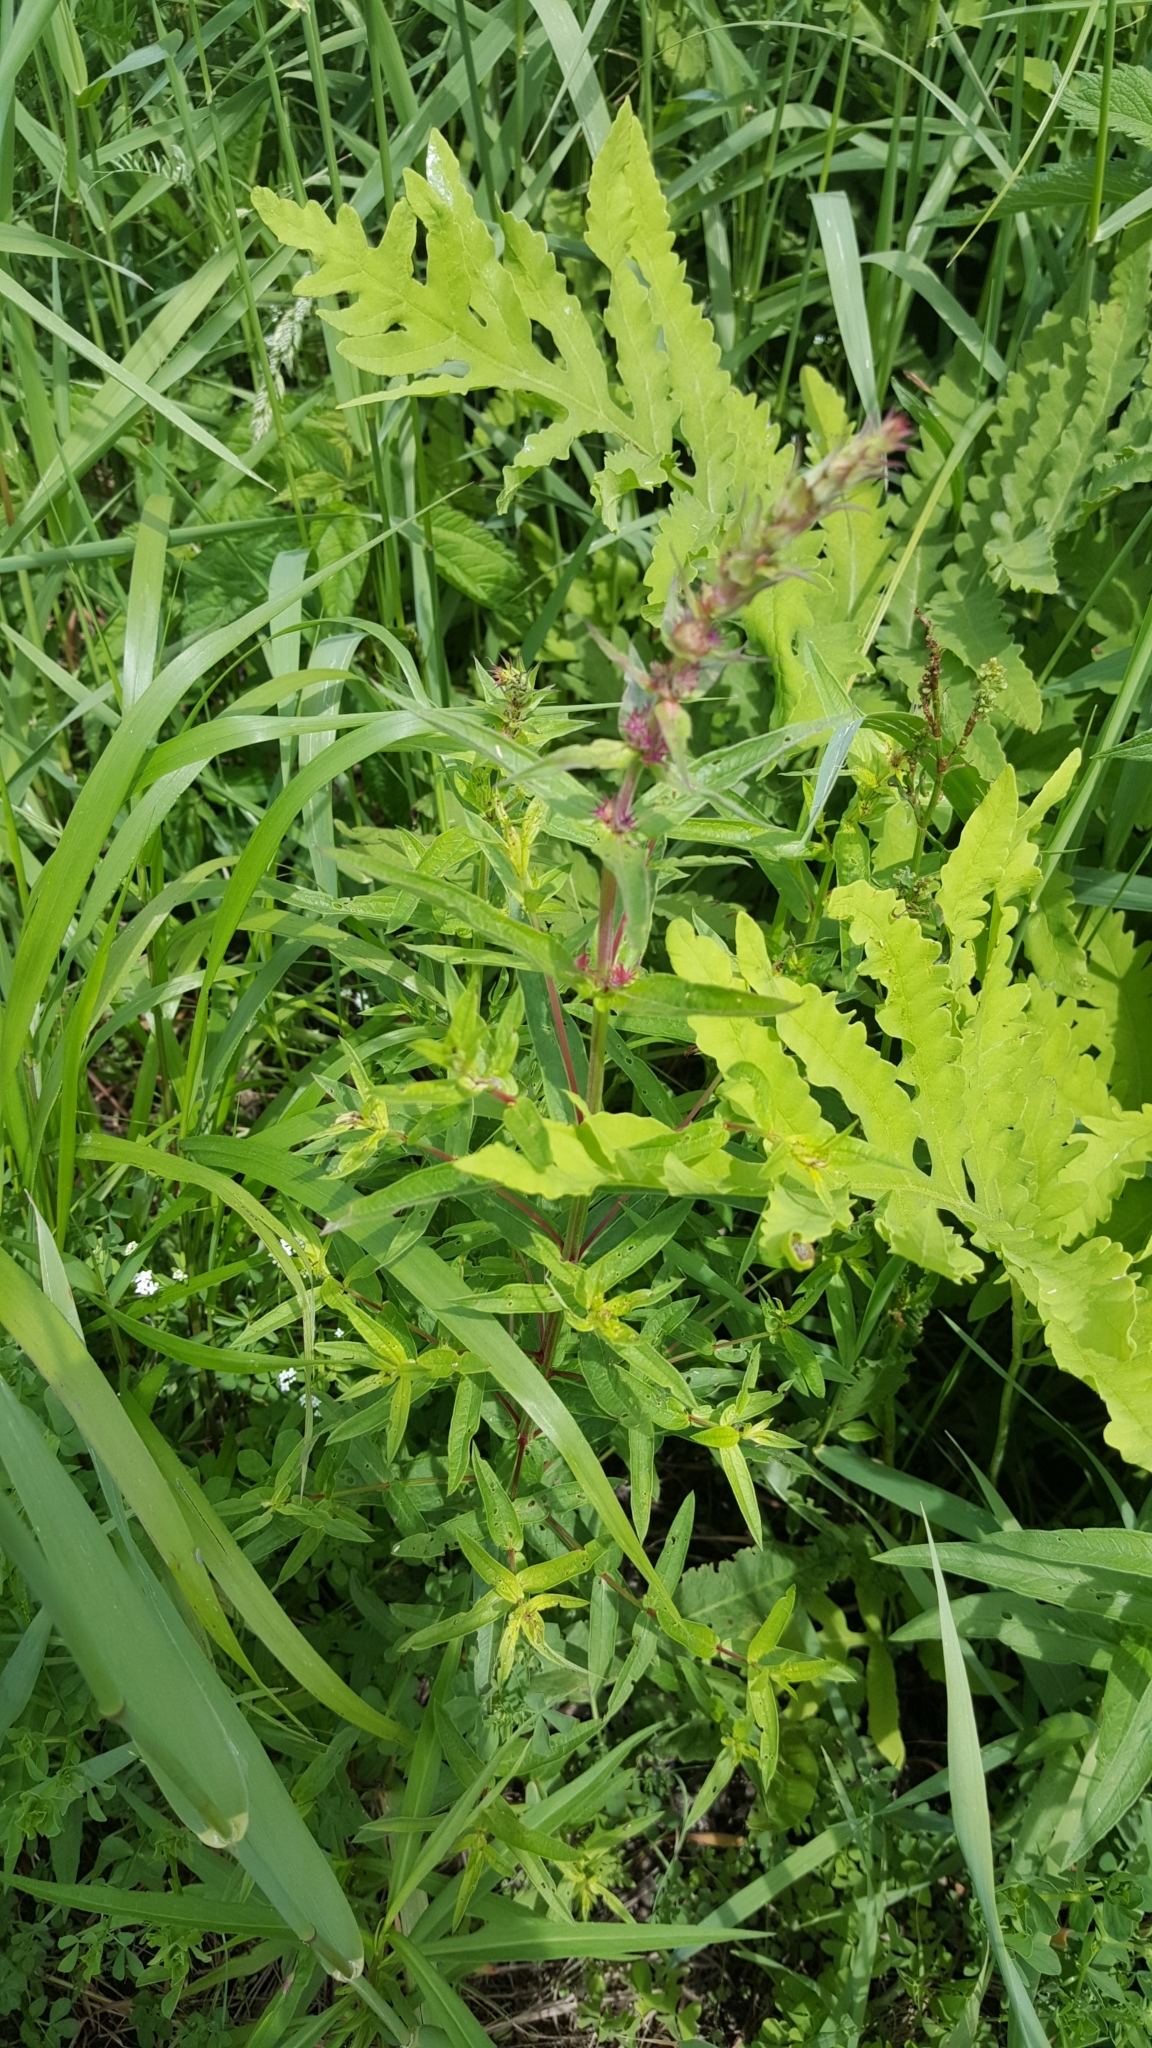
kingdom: Plantae
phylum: Tracheophyta
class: Magnoliopsida
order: Myrtales
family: Lythraceae
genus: Lythrum
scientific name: Lythrum salicaria
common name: Purple loosestrife
